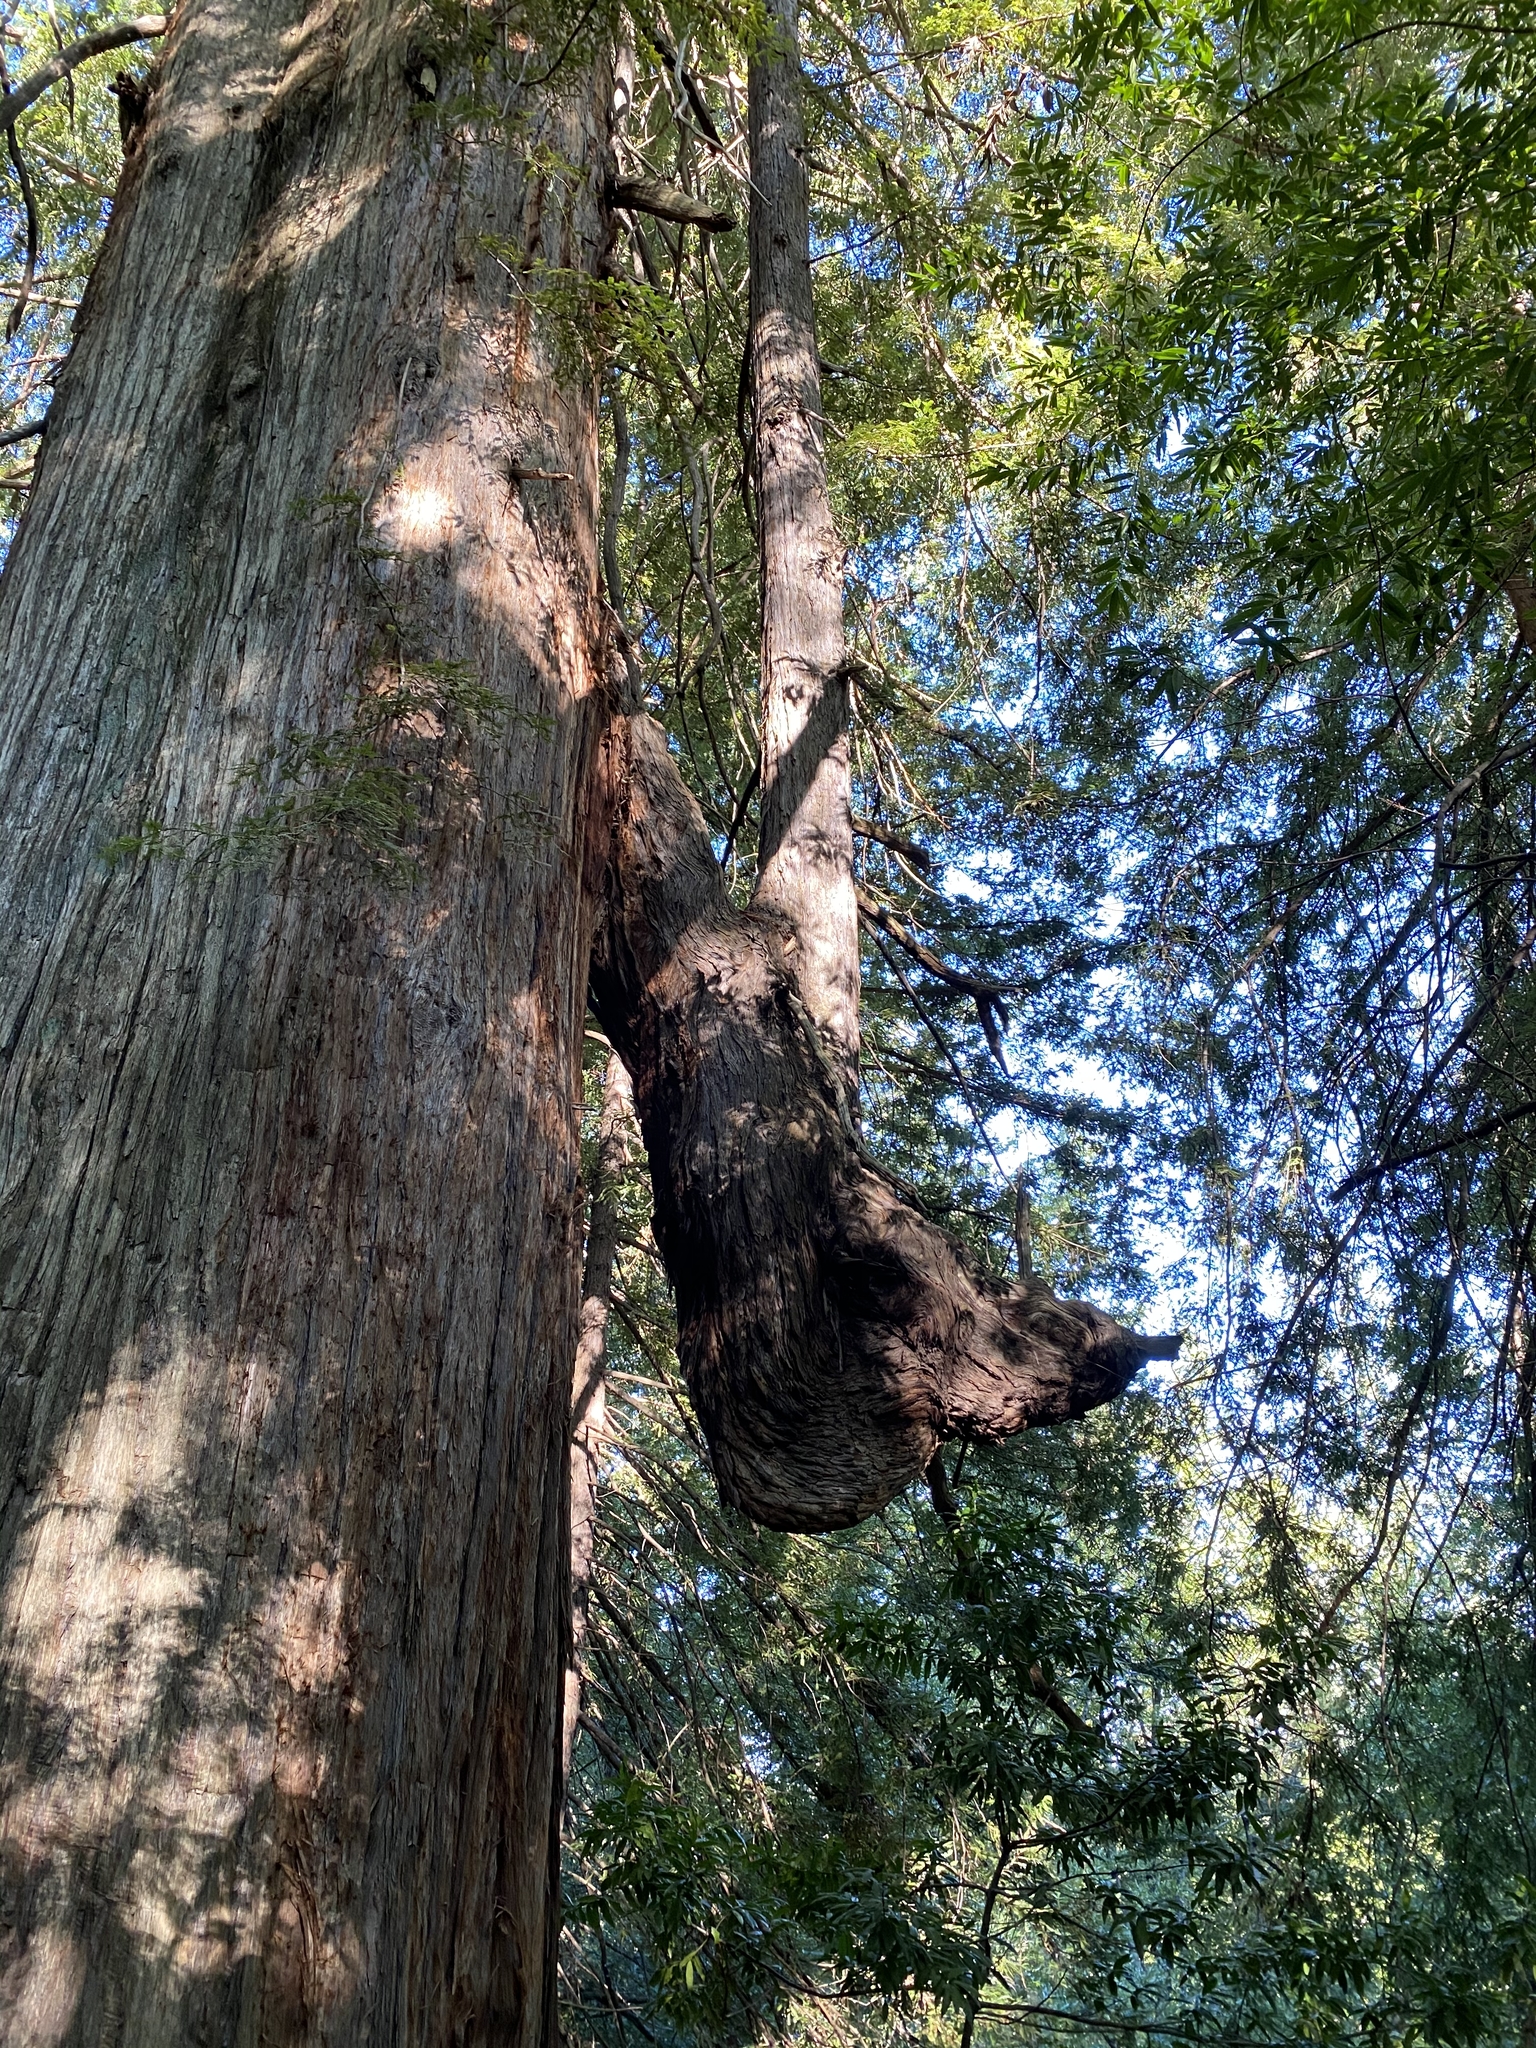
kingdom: Plantae
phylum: Tracheophyta
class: Pinopsida
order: Pinales
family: Cupressaceae
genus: Sequoia
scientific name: Sequoia sempervirens
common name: Coast redwood
